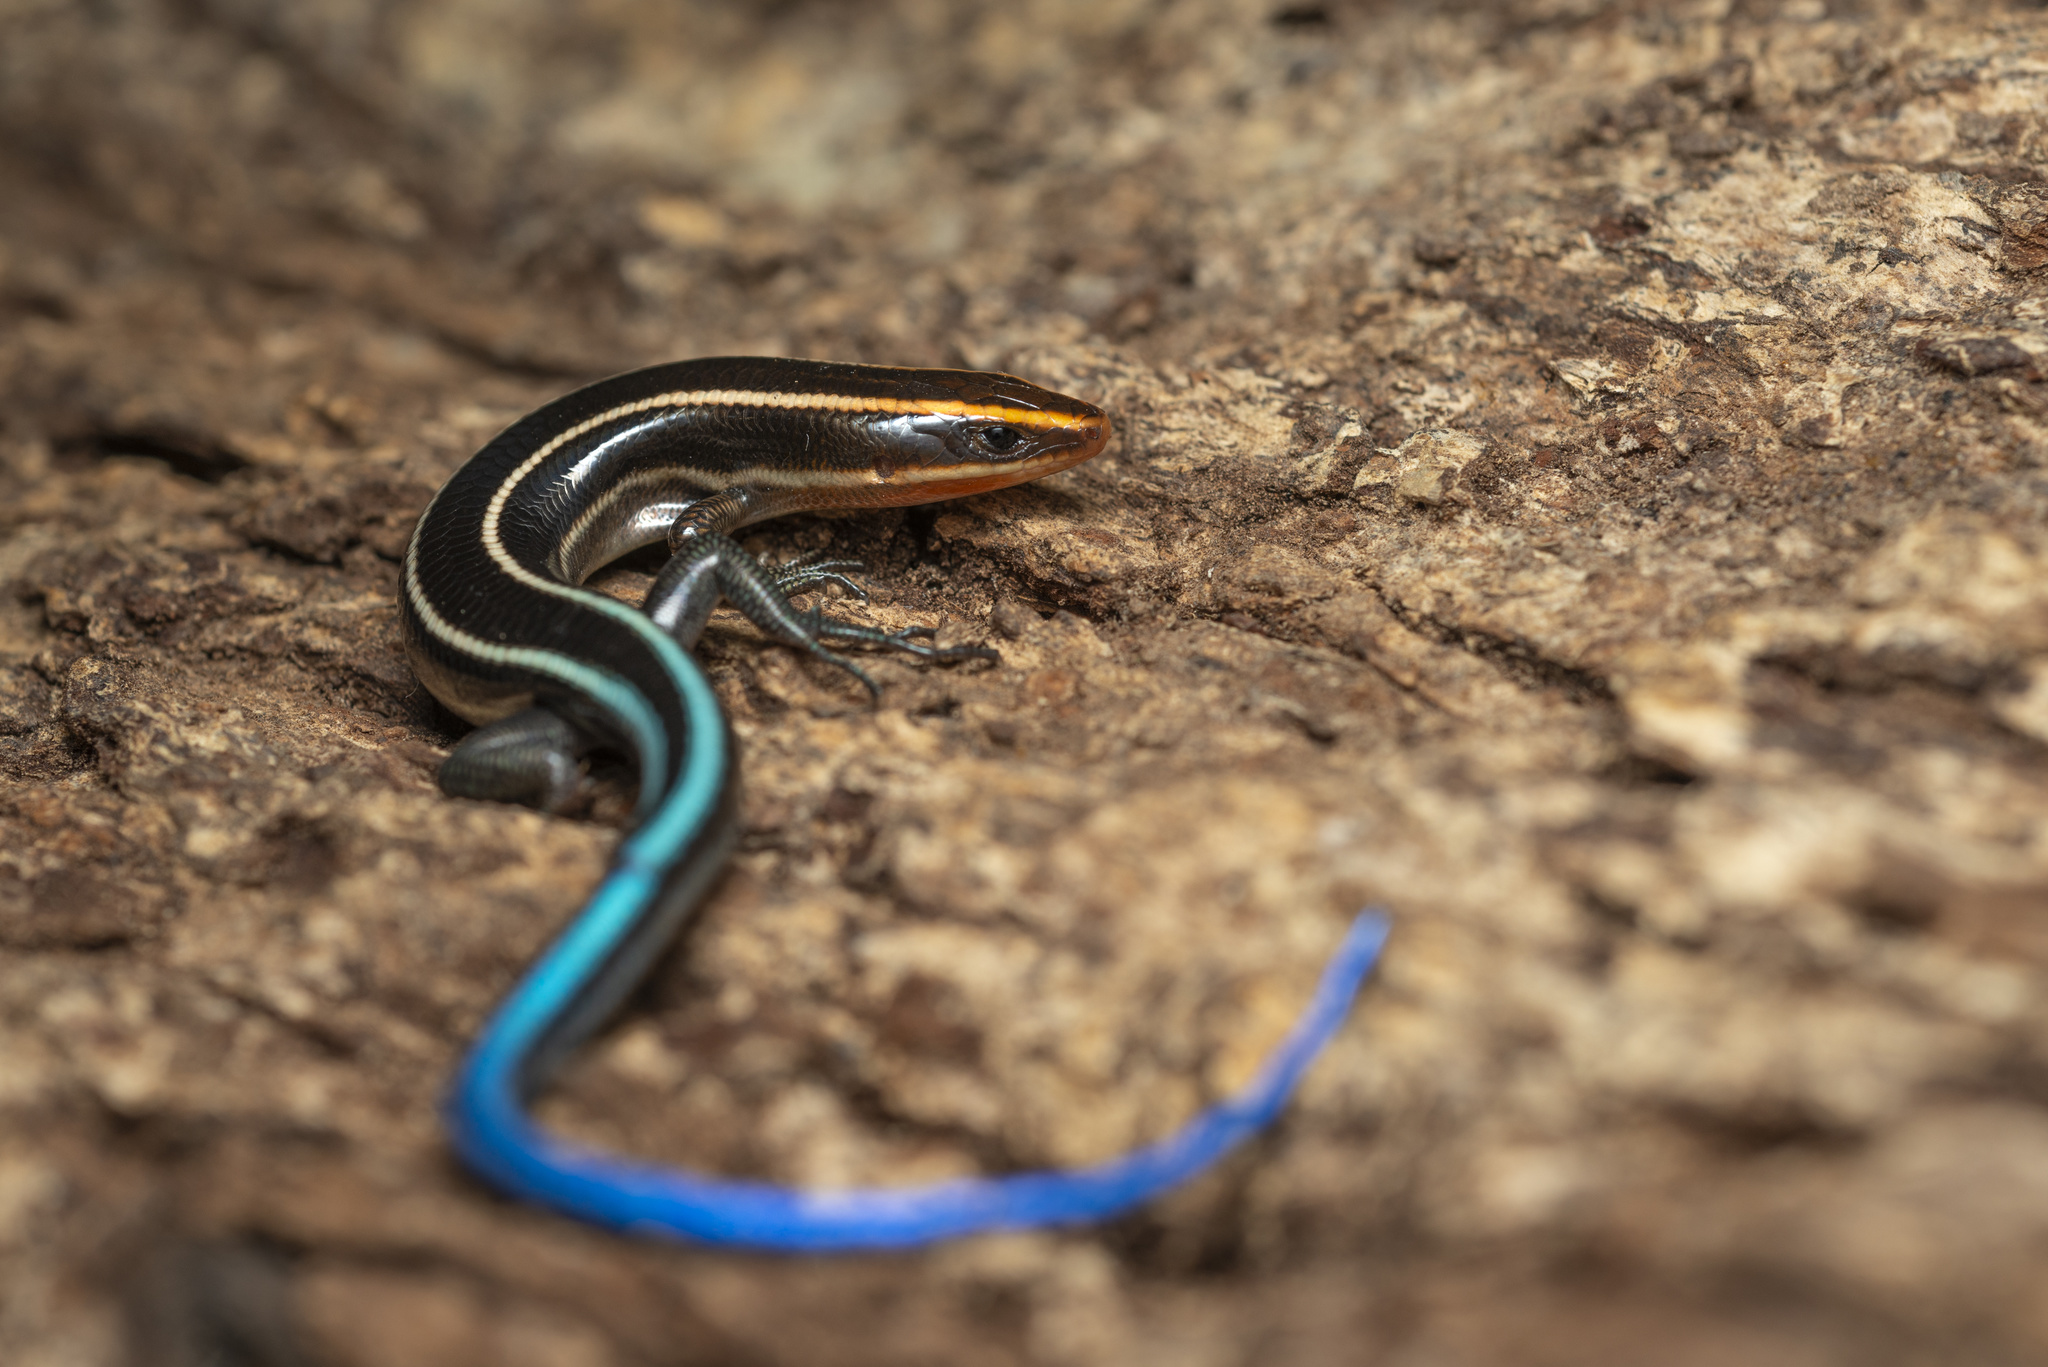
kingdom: Animalia
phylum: Chordata
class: Squamata
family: Scincidae
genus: Plestiodon
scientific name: Plestiodon quadrilineatus
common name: Four-striped skink
